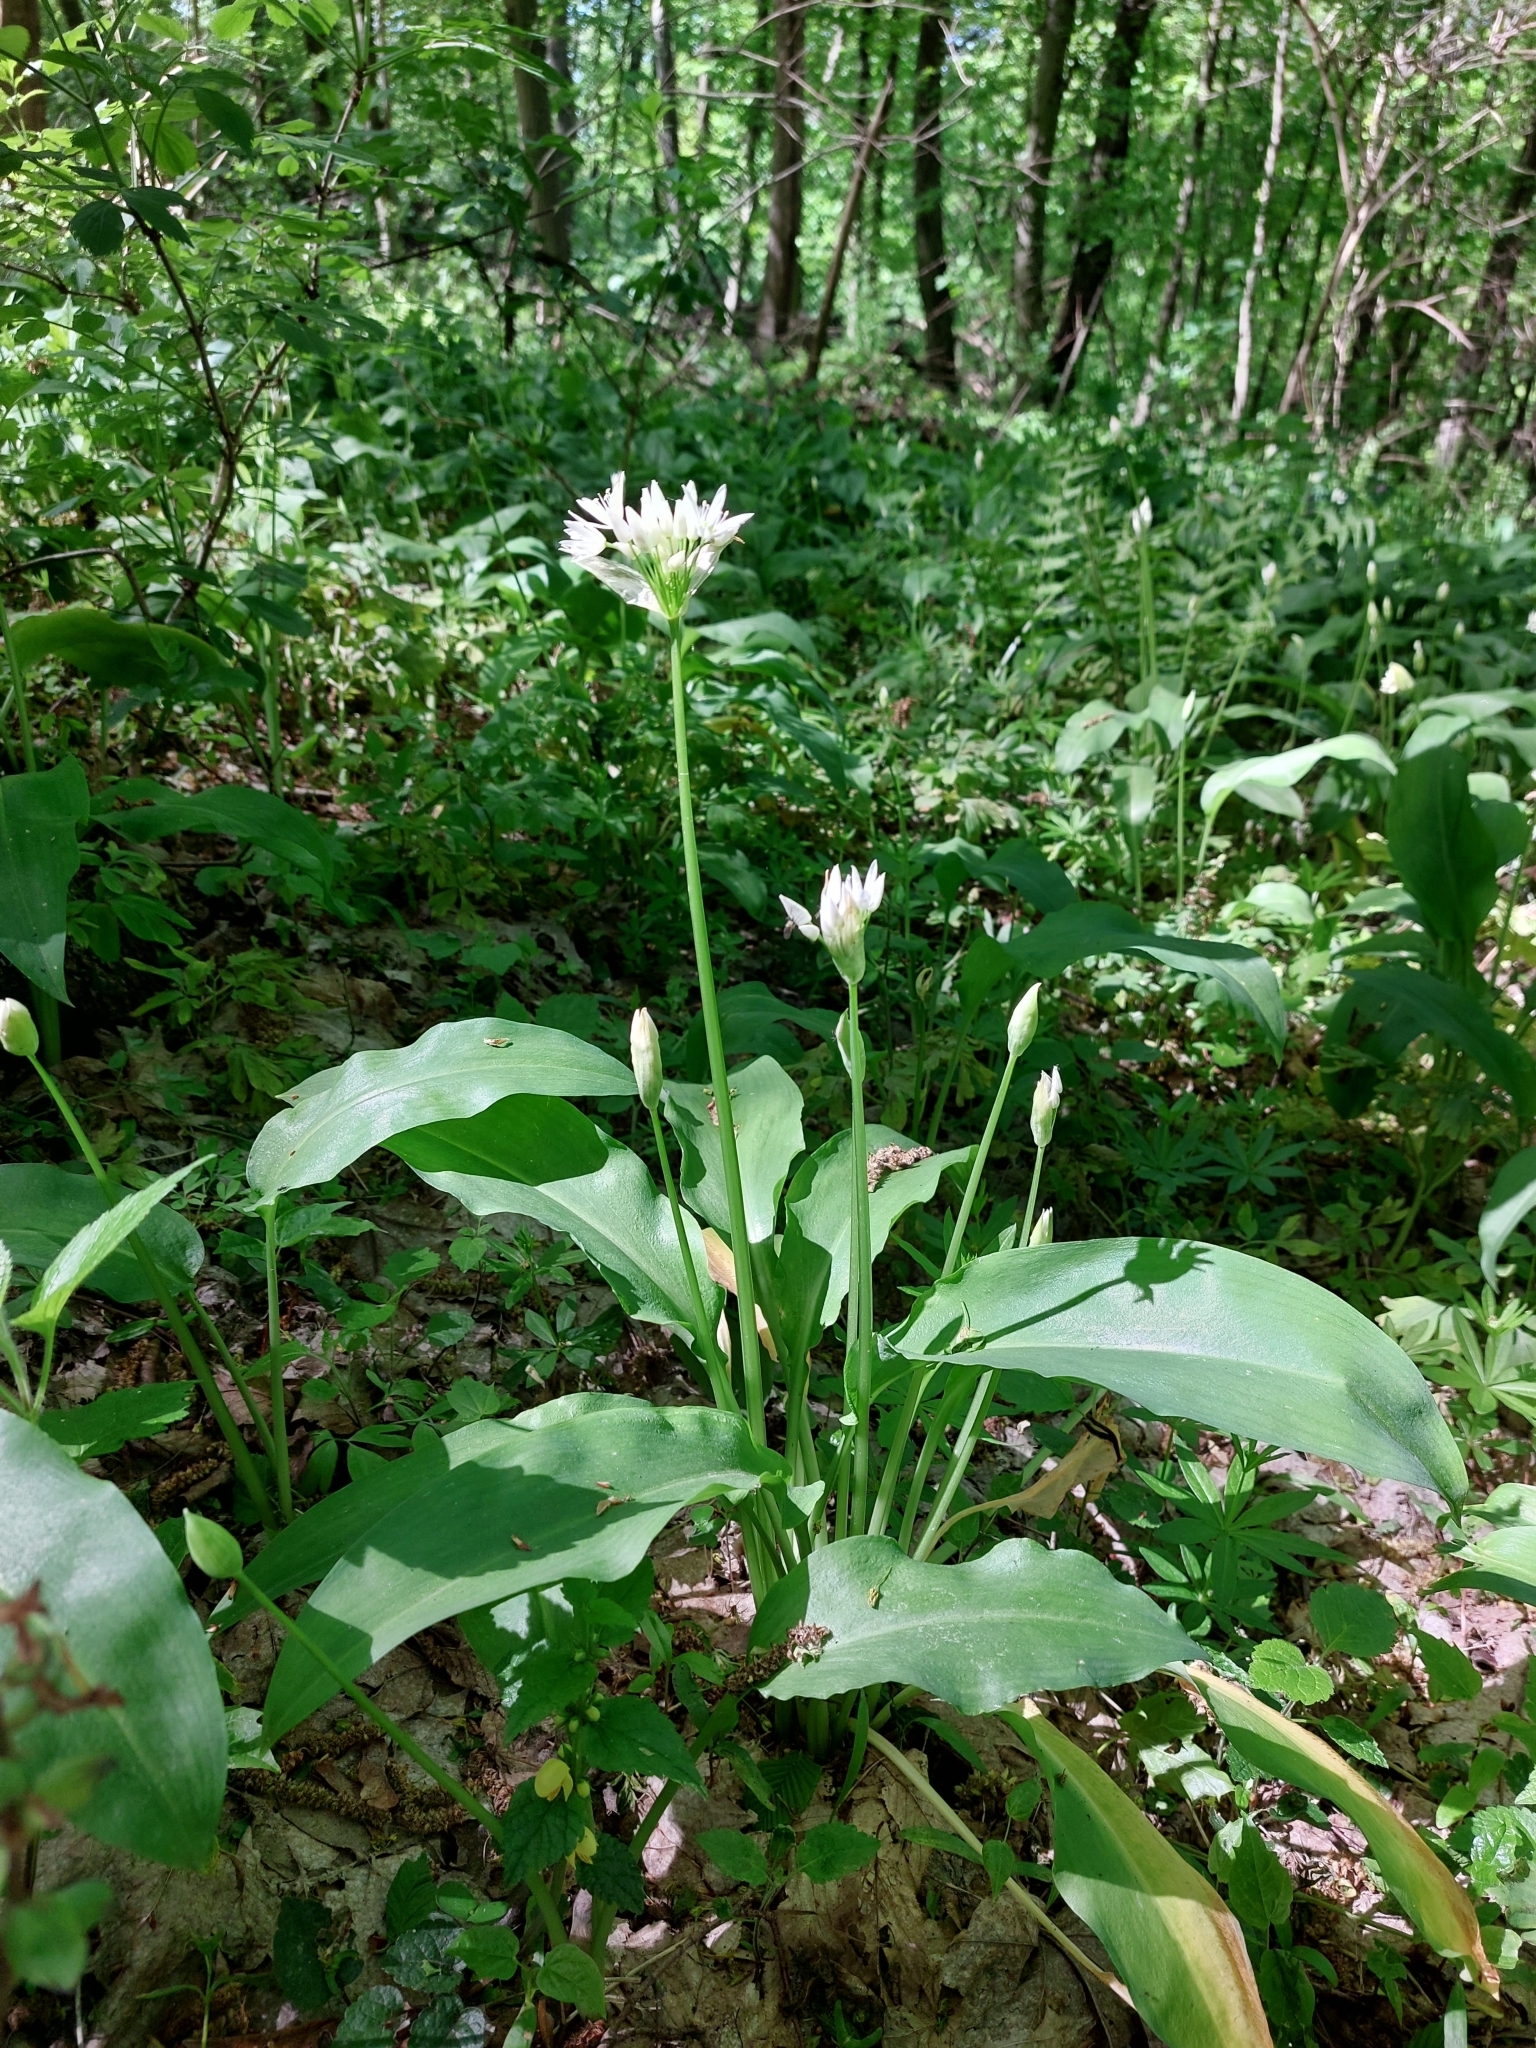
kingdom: Plantae
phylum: Tracheophyta
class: Liliopsida
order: Asparagales
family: Amaryllidaceae
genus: Allium
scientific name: Allium ursinum
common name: Ramsons
